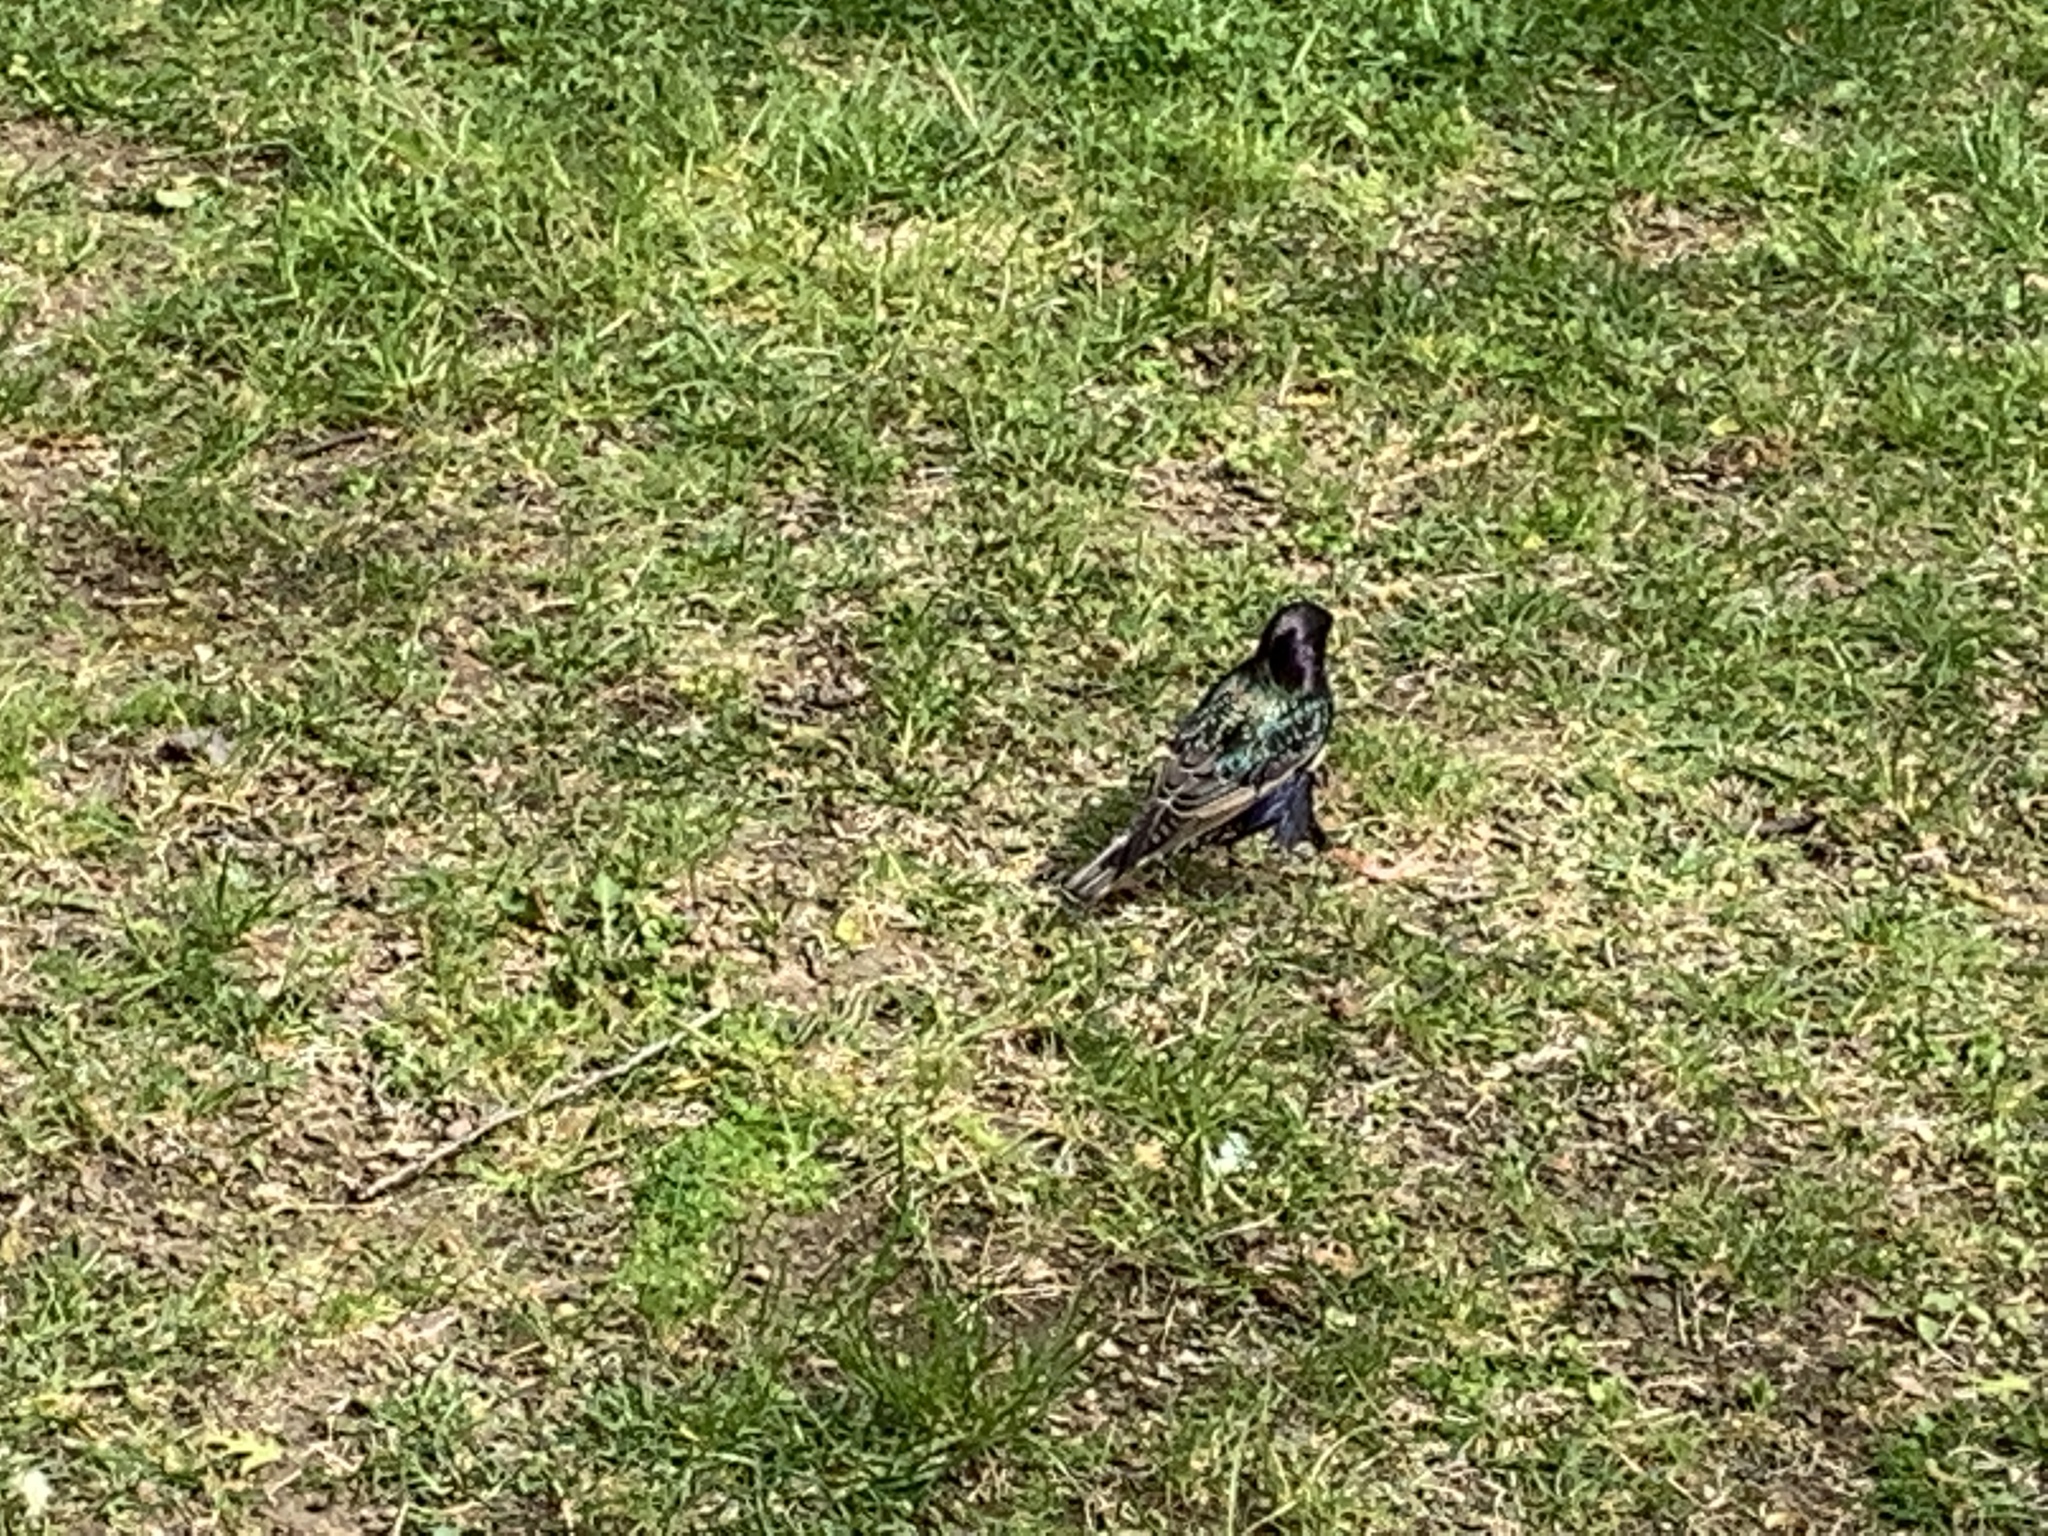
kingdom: Animalia
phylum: Chordata
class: Aves
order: Passeriformes
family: Sturnidae
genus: Sturnus
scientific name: Sturnus vulgaris
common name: Common starling
